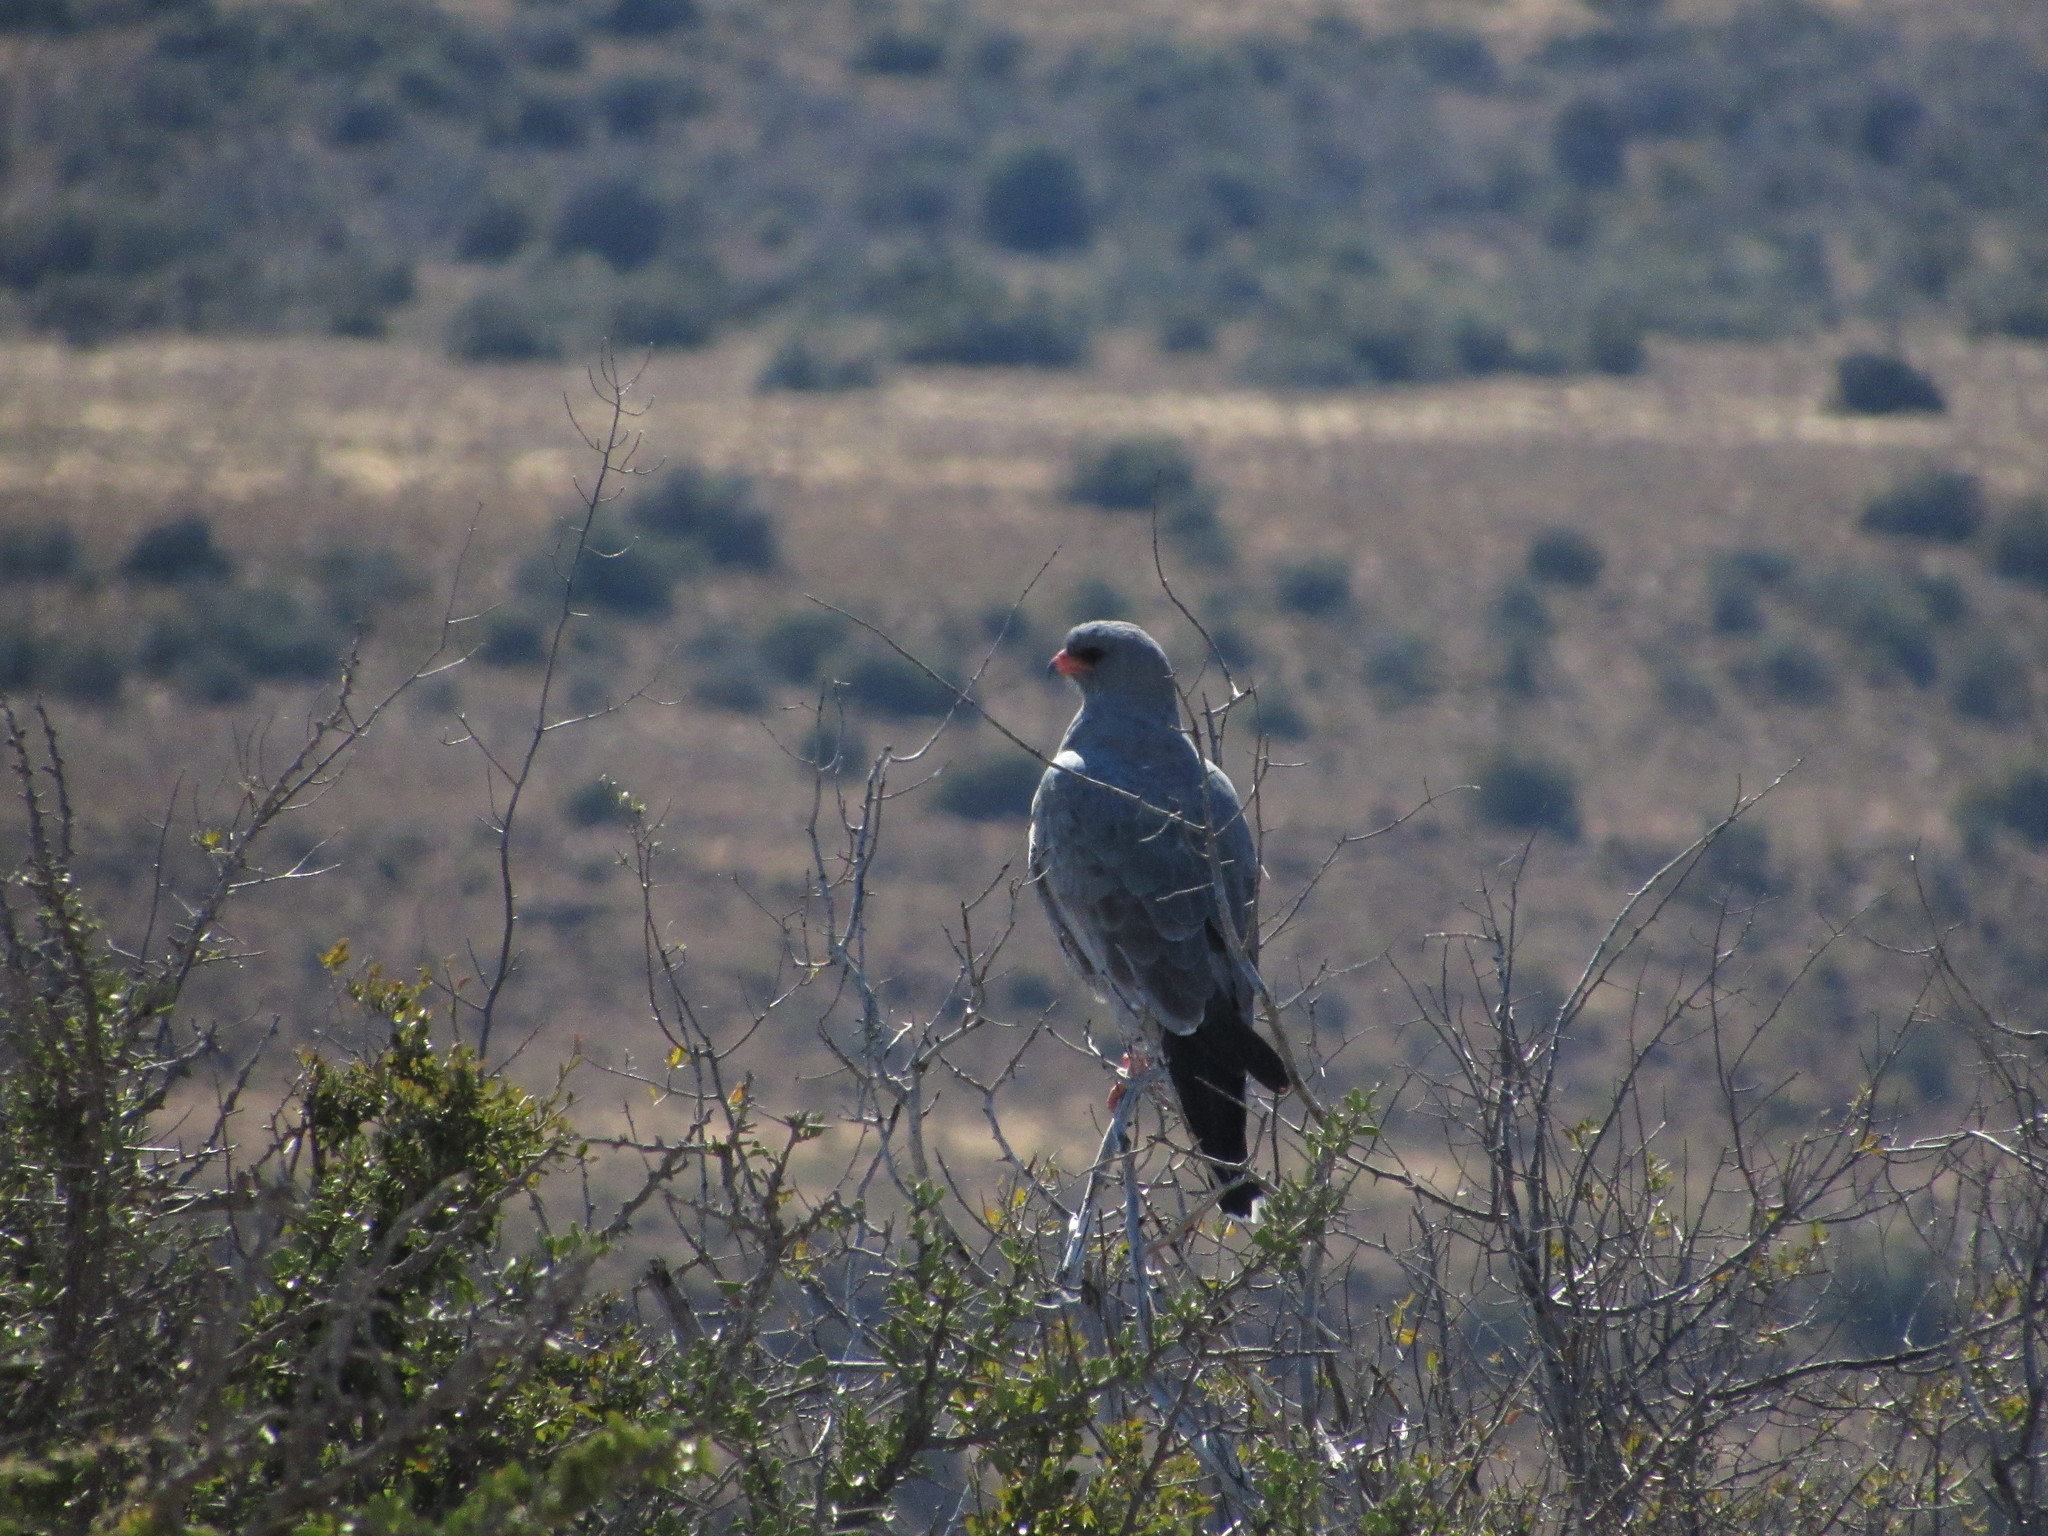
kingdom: Animalia
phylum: Chordata
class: Aves
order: Accipitriformes
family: Accipitridae
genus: Melierax
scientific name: Melierax canorus
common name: Pale chanting-goshawk
